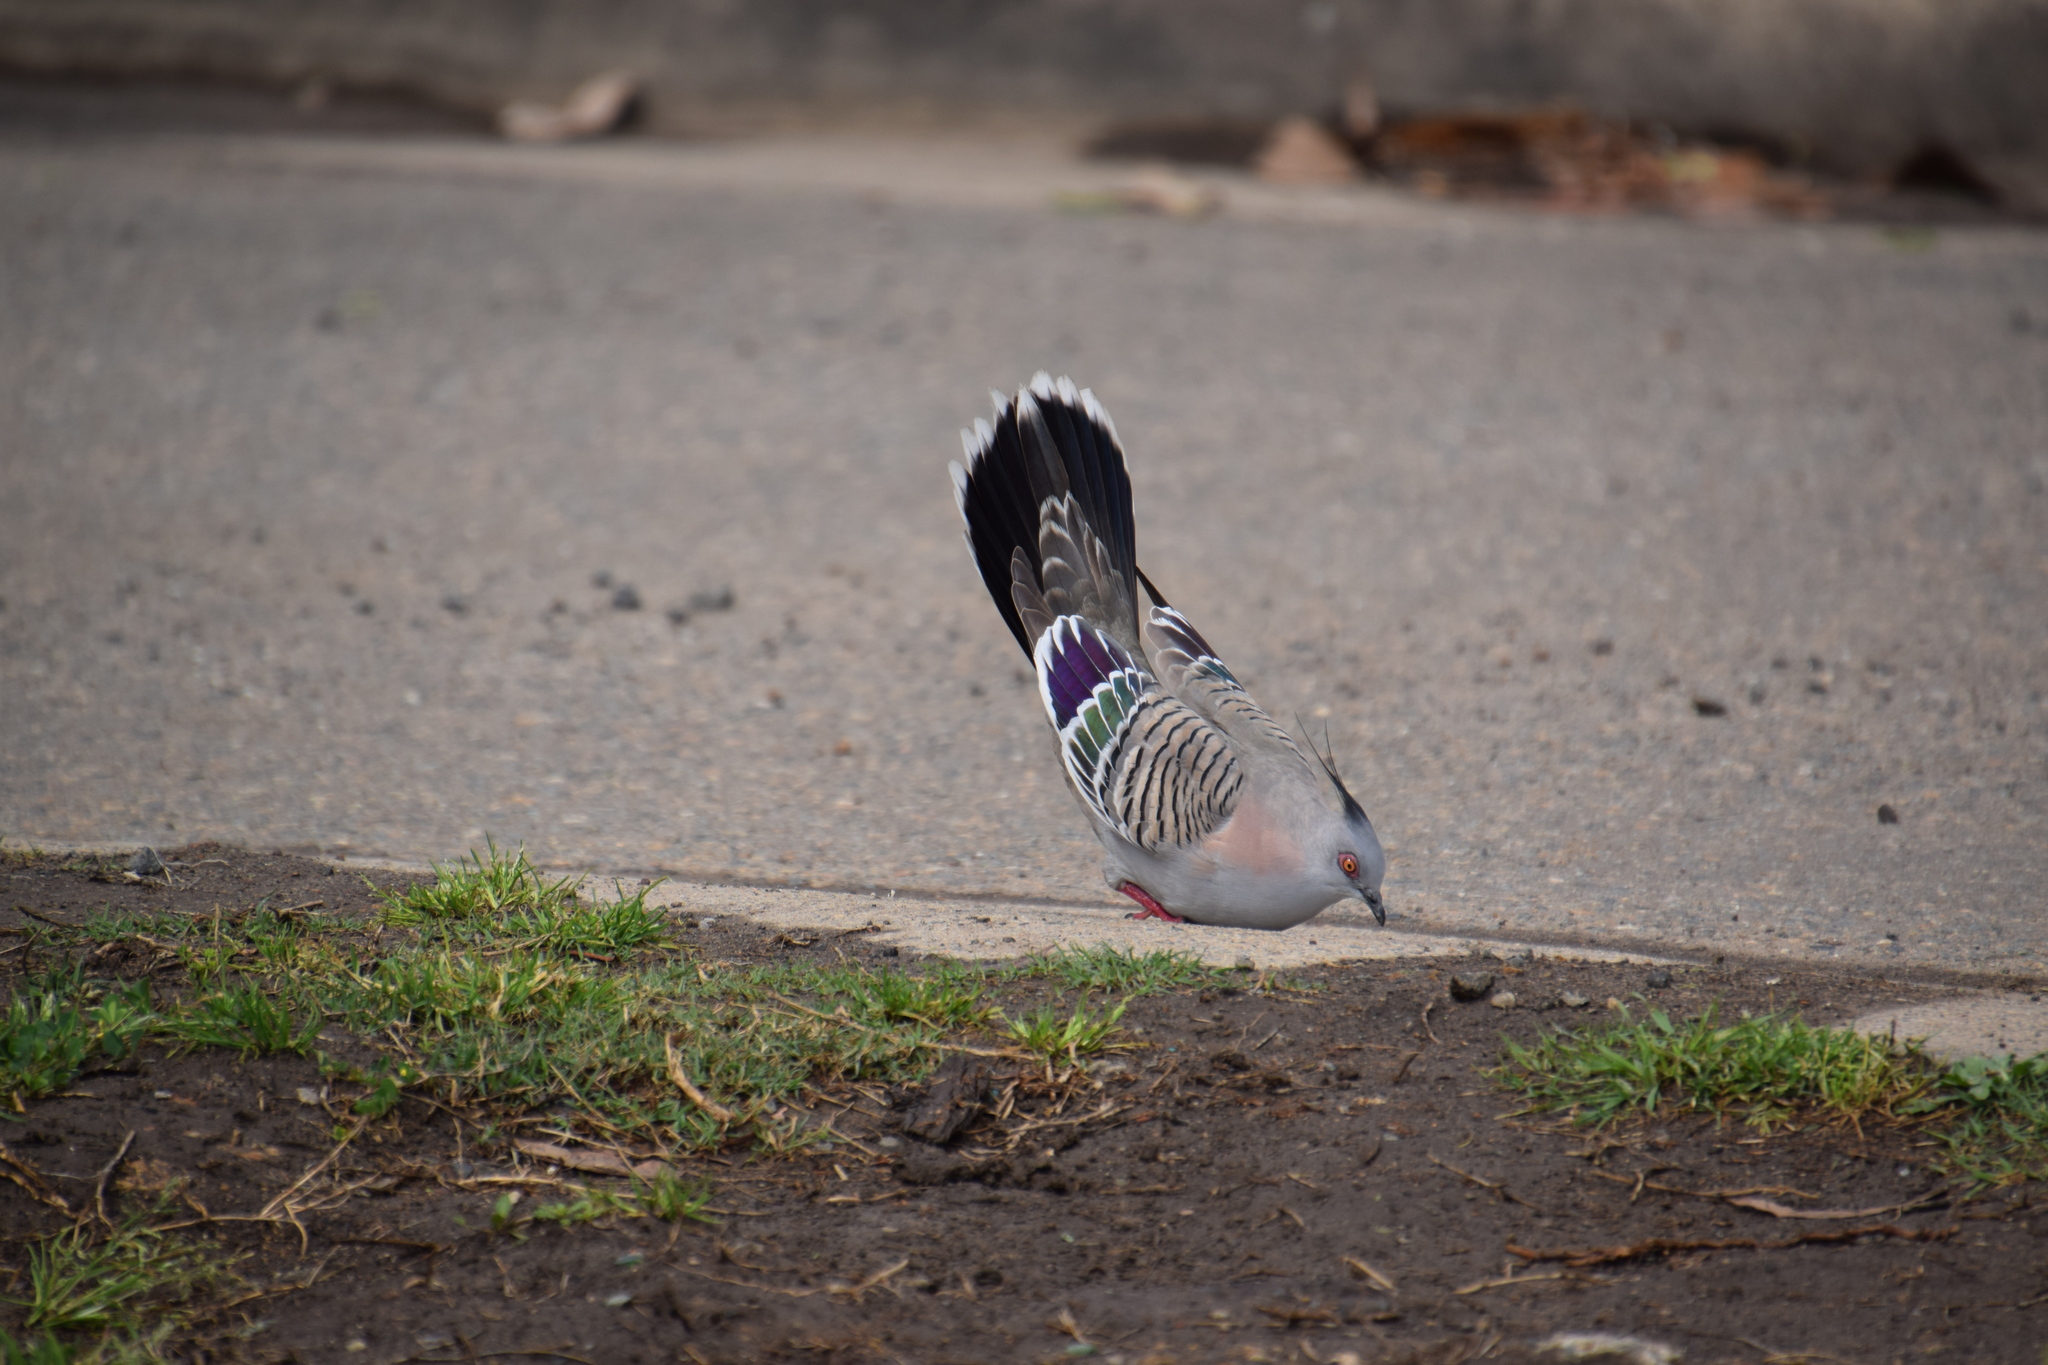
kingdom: Animalia
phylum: Chordata
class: Aves
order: Columbiformes
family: Columbidae
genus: Ocyphaps
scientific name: Ocyphaps lophotes
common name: Crested pigeon
